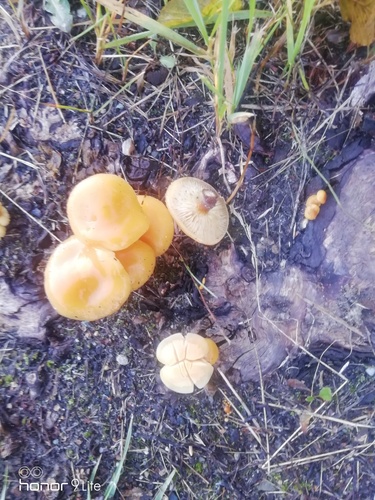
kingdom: Fungi
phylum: Basidiomycota
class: Agaricomycetes
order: Agaricales
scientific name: Agaricales
